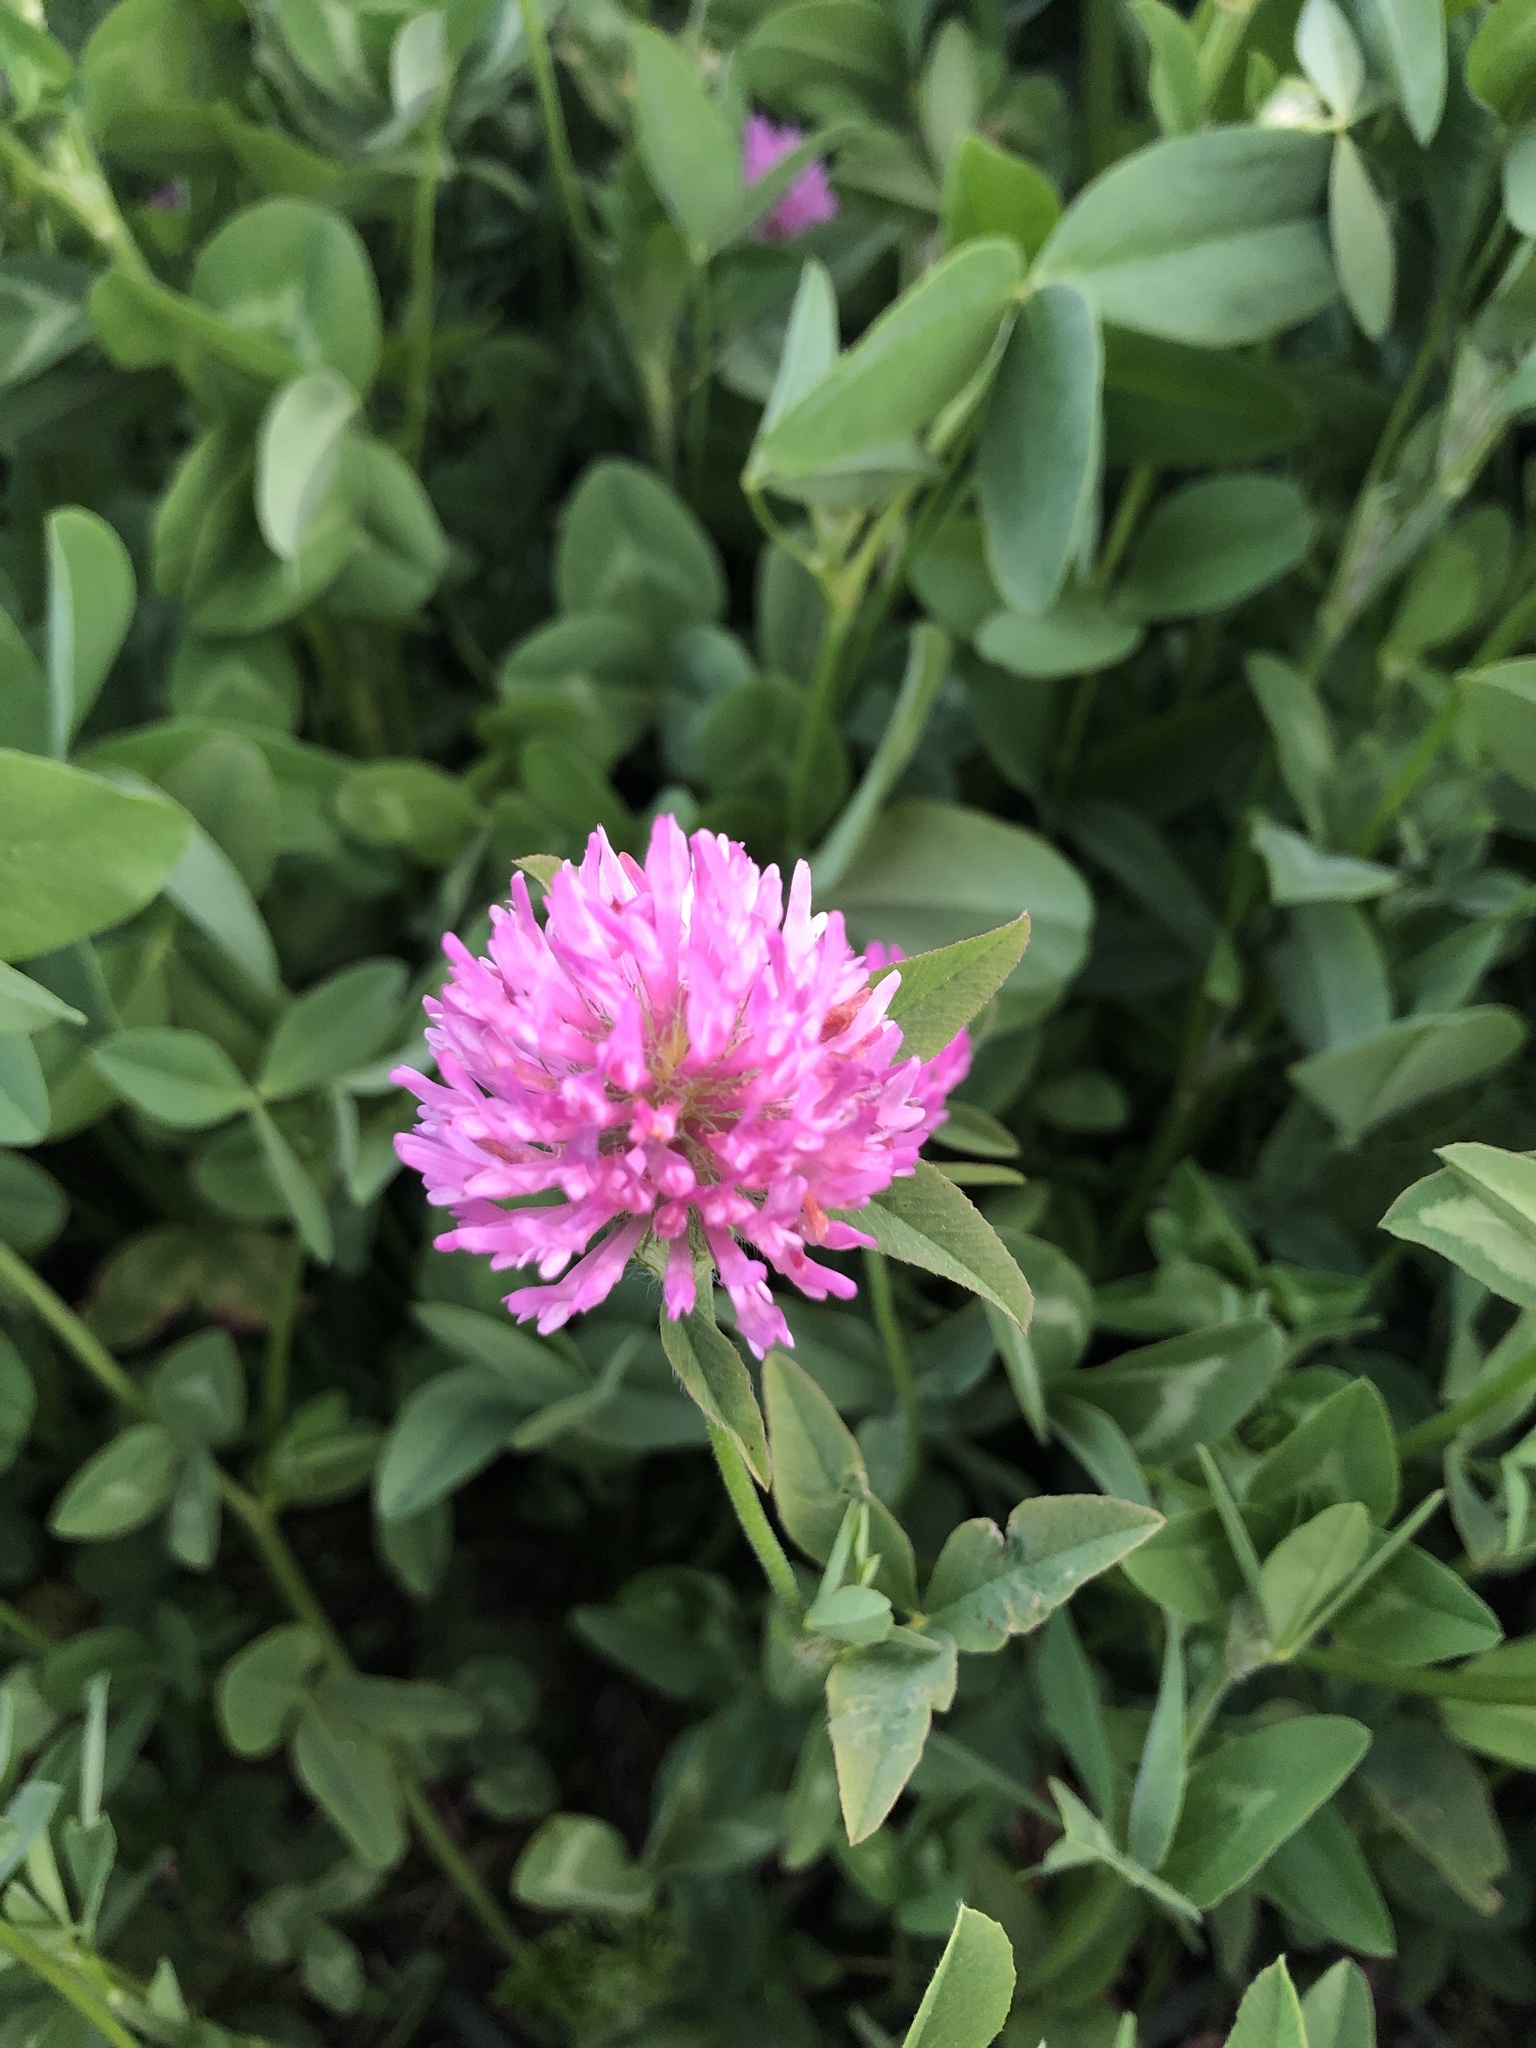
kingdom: Plantae
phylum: Tracheophyta
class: Magnoliopsida
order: Fabales
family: Fabaceae
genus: Trifolium
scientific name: Trifolium pratense
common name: Red clover
